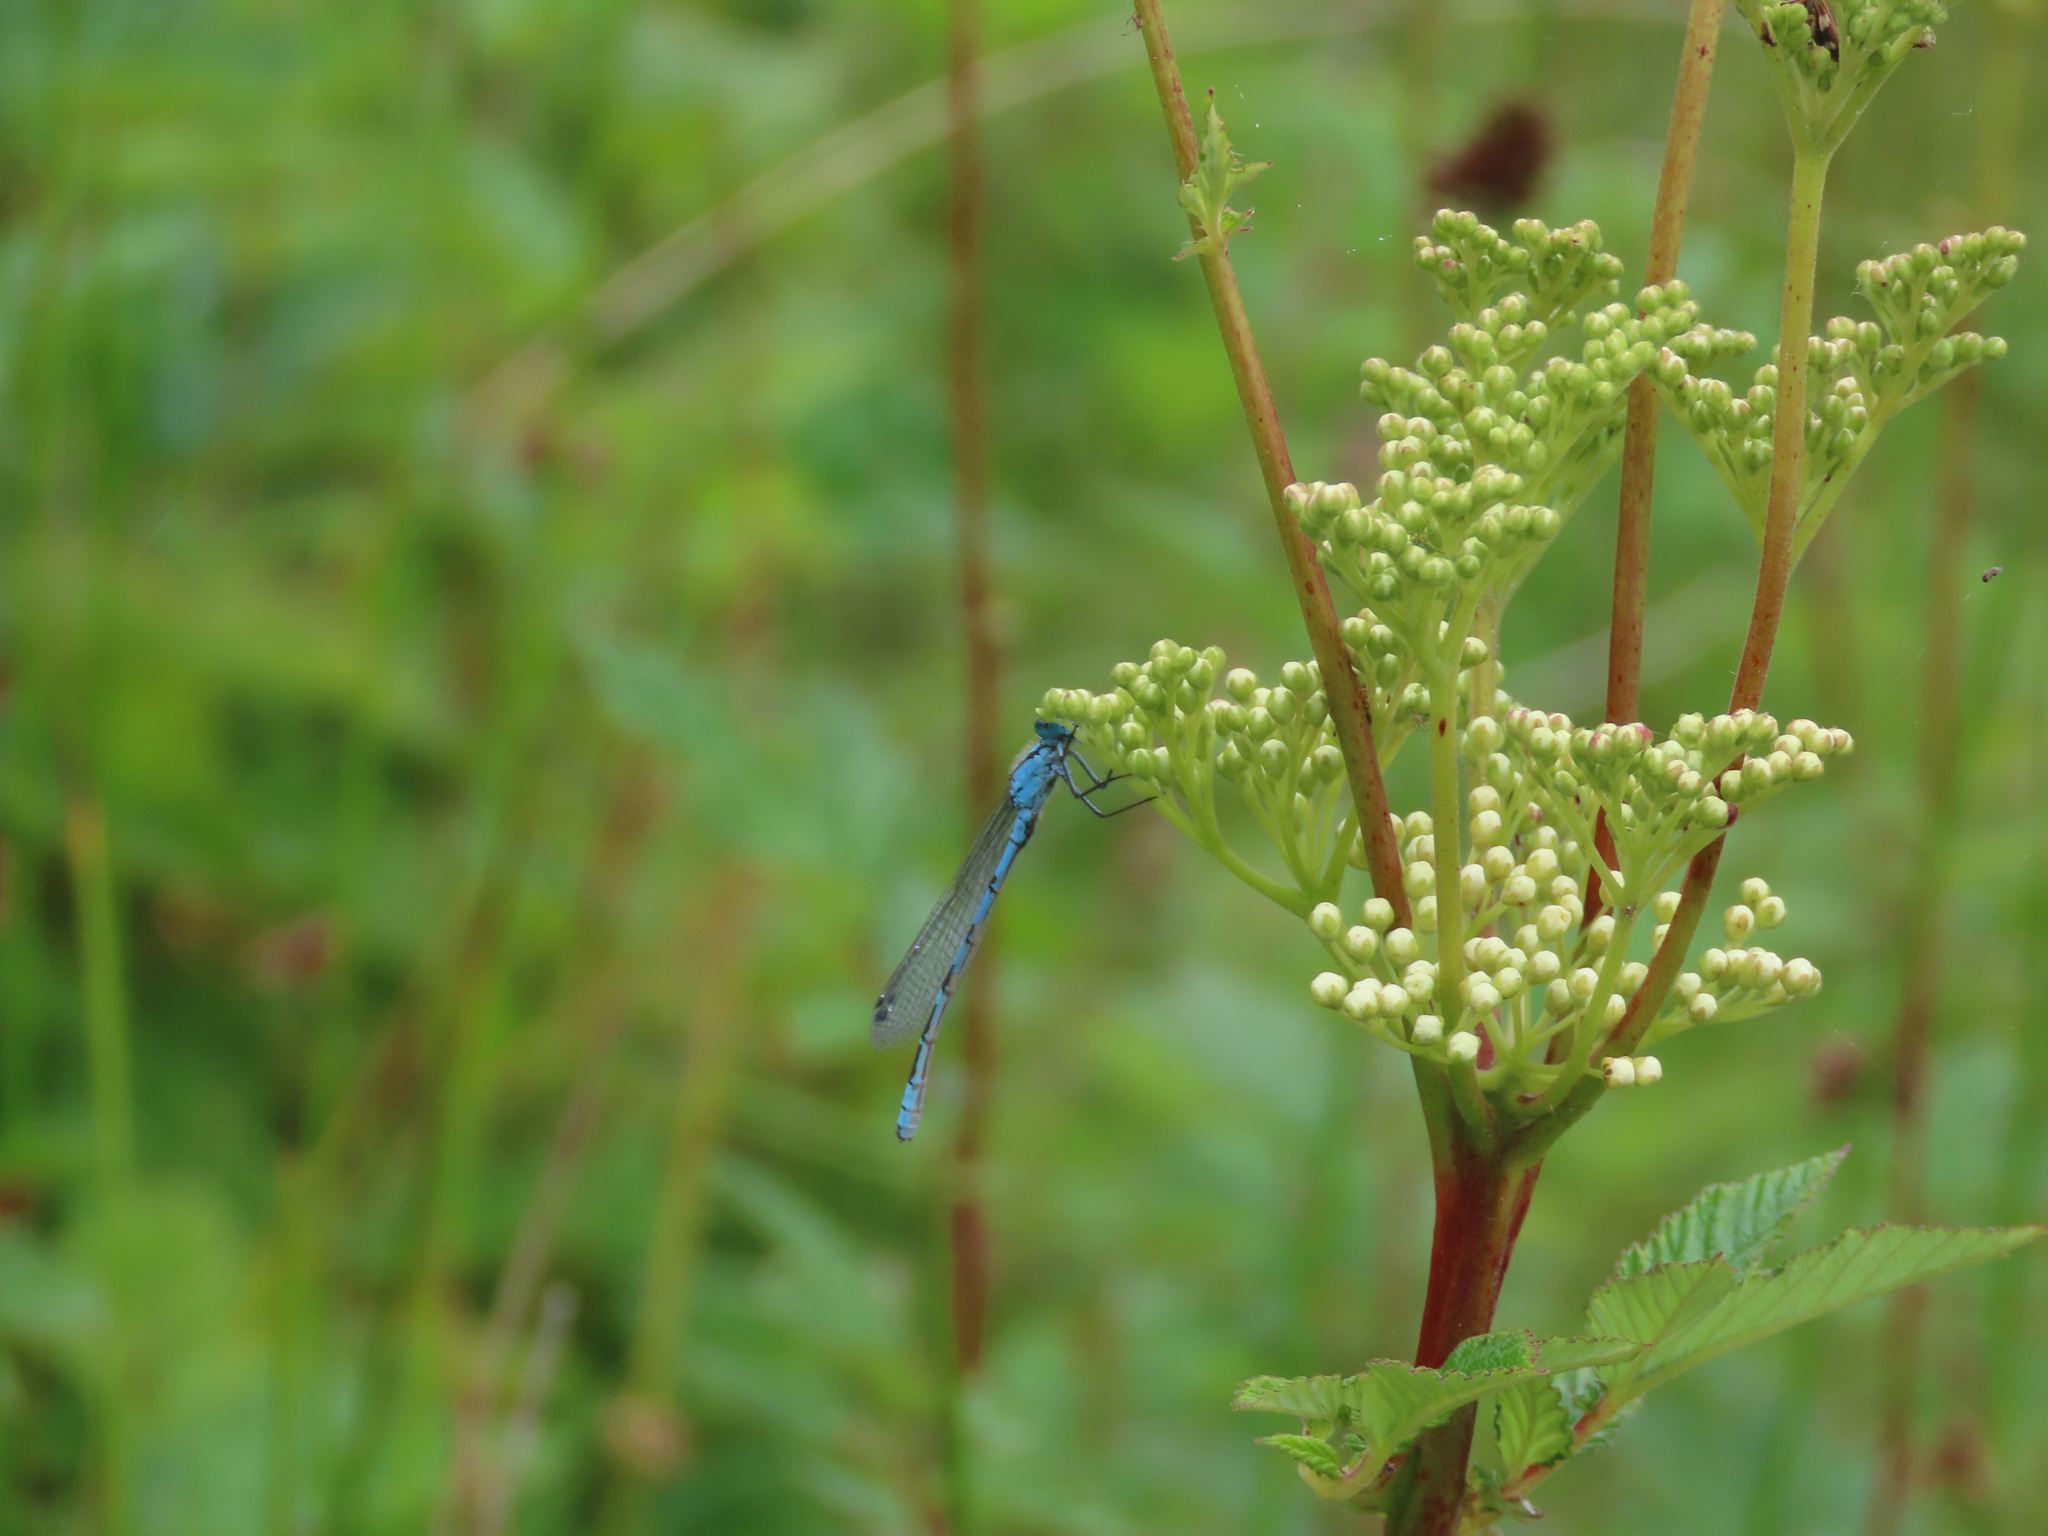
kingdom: Animalia
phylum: Arthropoda
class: Insecta
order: Odonata
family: Coenagrionidae
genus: Enallagma
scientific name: Enallagma cyathigerum
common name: Common blue damselfly
